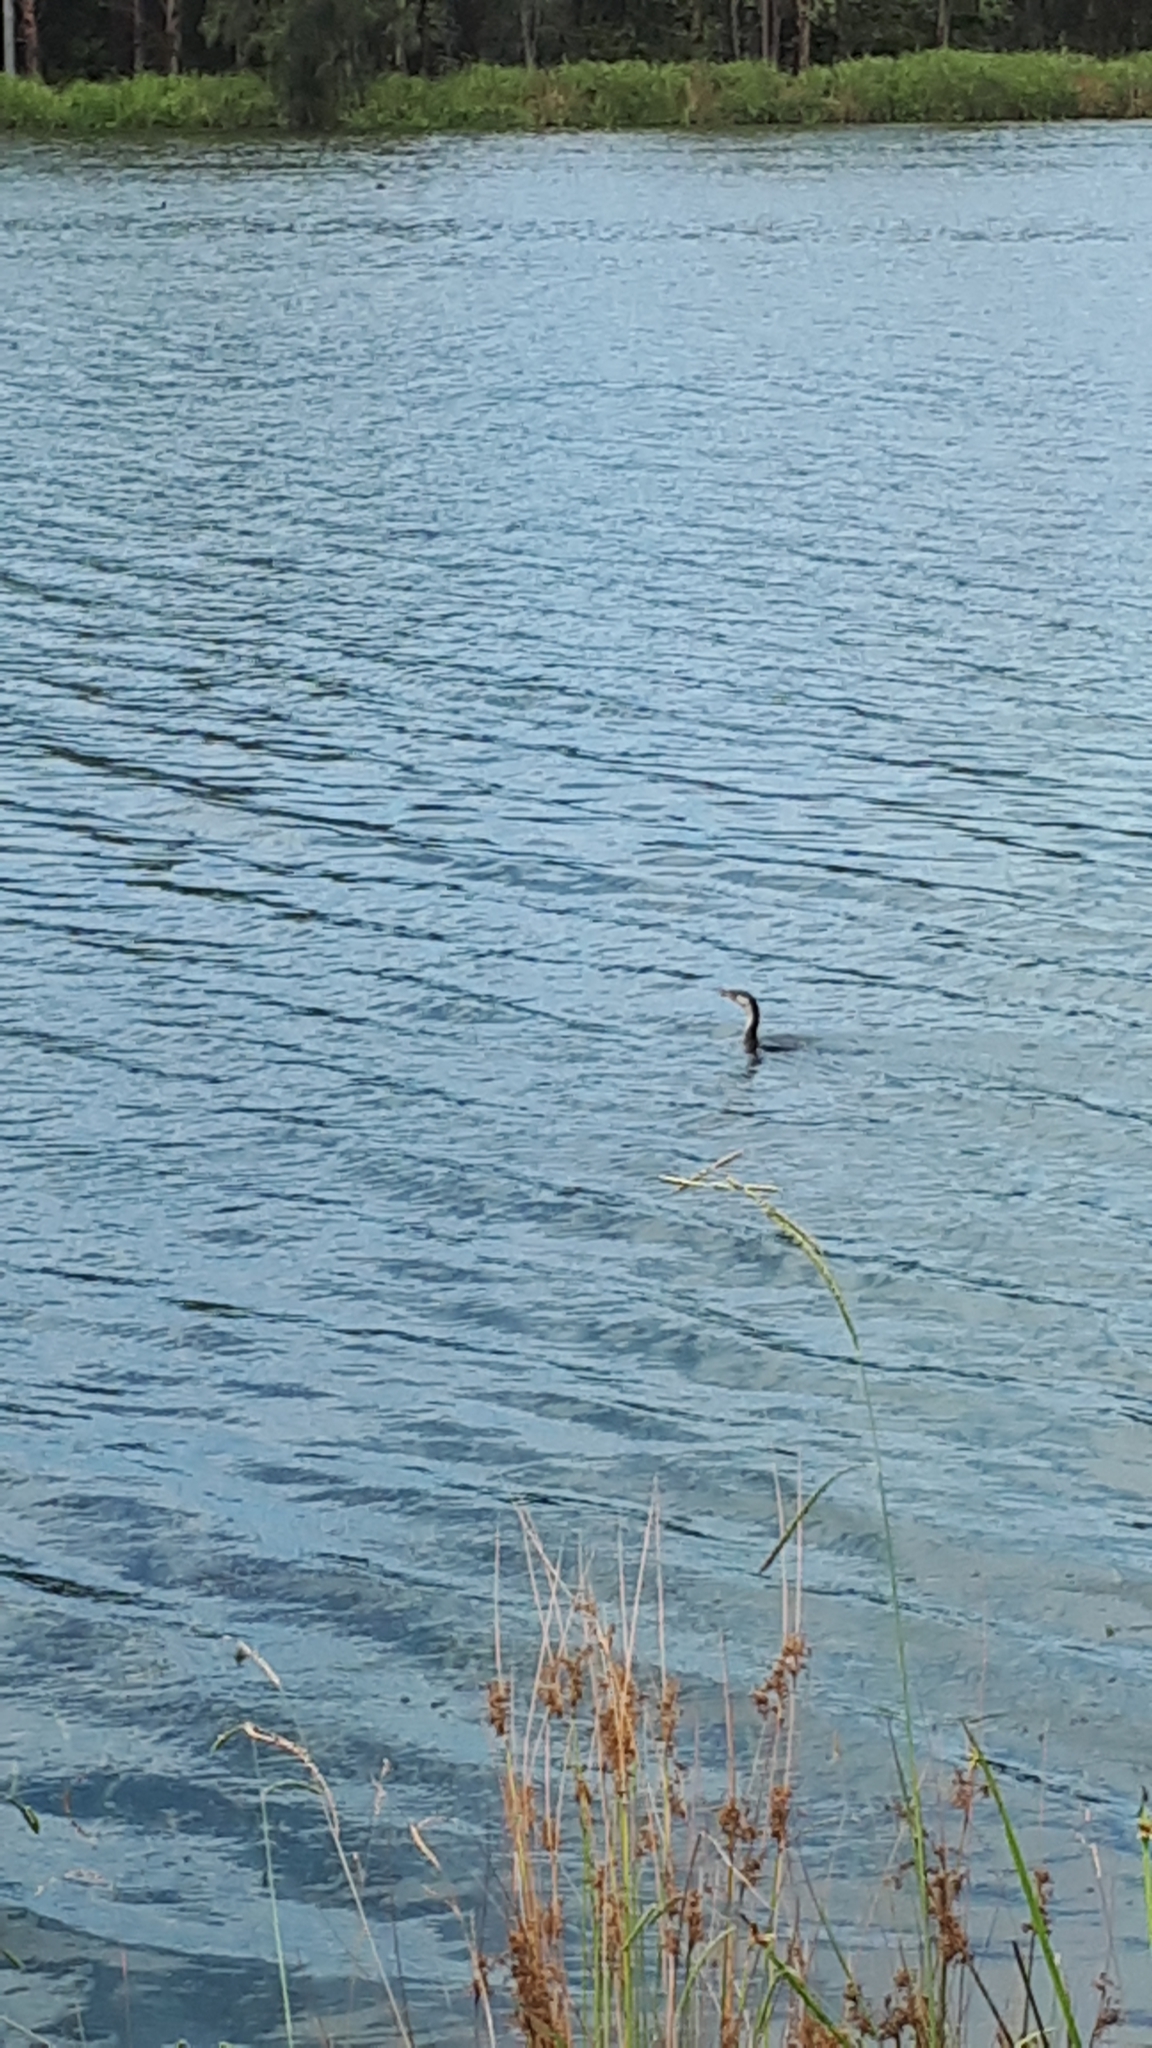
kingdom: Animalia
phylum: Chordata
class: Aves
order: Suliformes
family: Phalacrocoracidae
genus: Microcarbo
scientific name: Microcarbo melanoleucos
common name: Little pied cormorant
